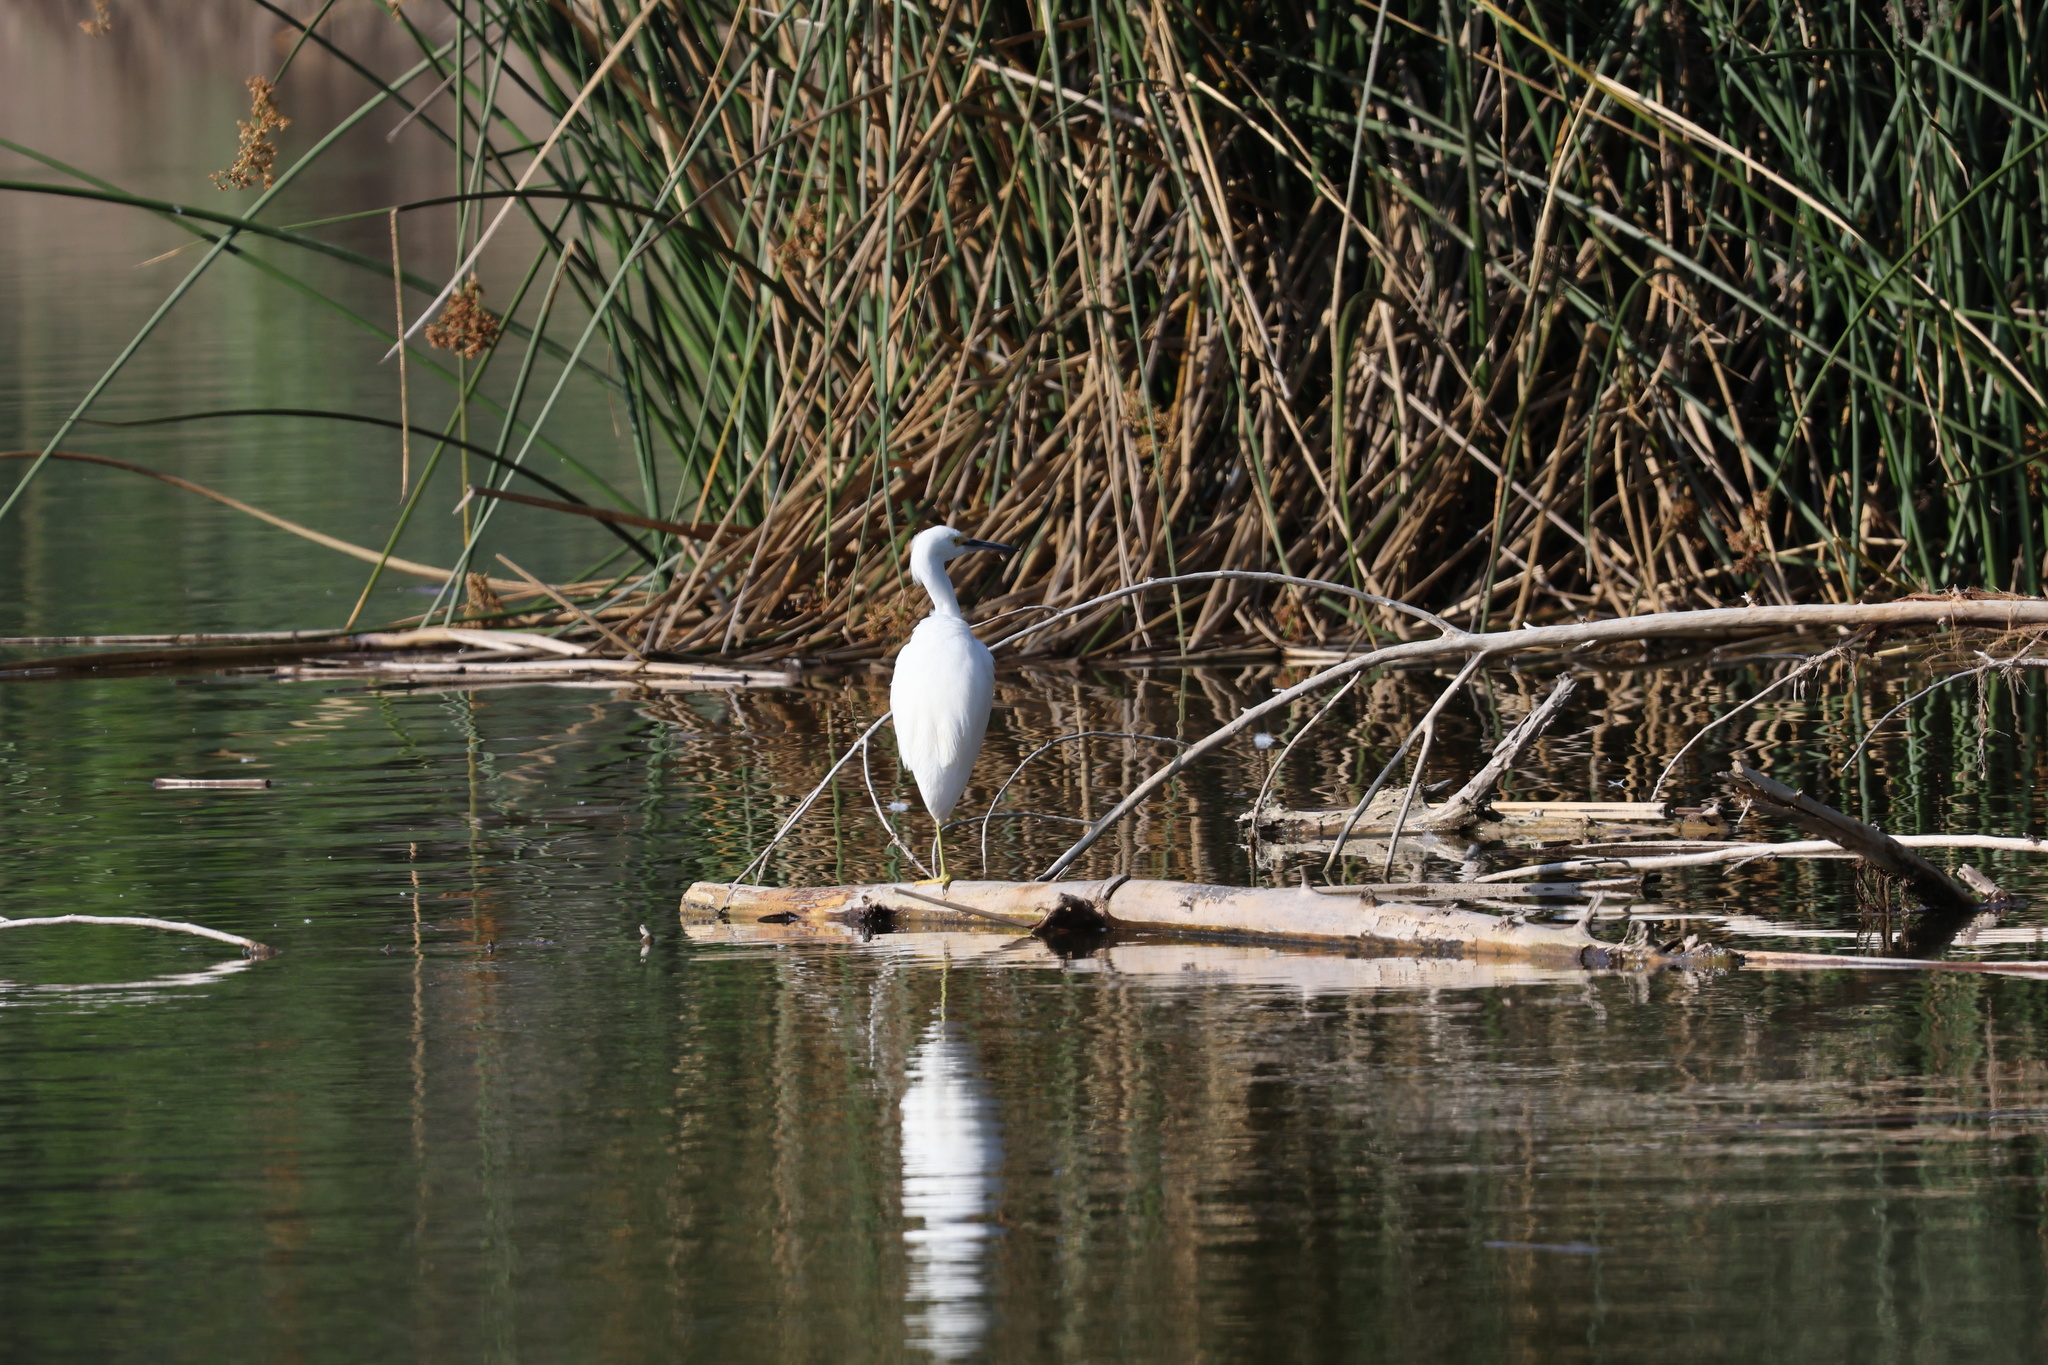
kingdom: Animalia
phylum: Chordata
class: Aves
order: Pelecaniformes
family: Ardeidae
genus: Egretta
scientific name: Egretta thula
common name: Snowy egret
